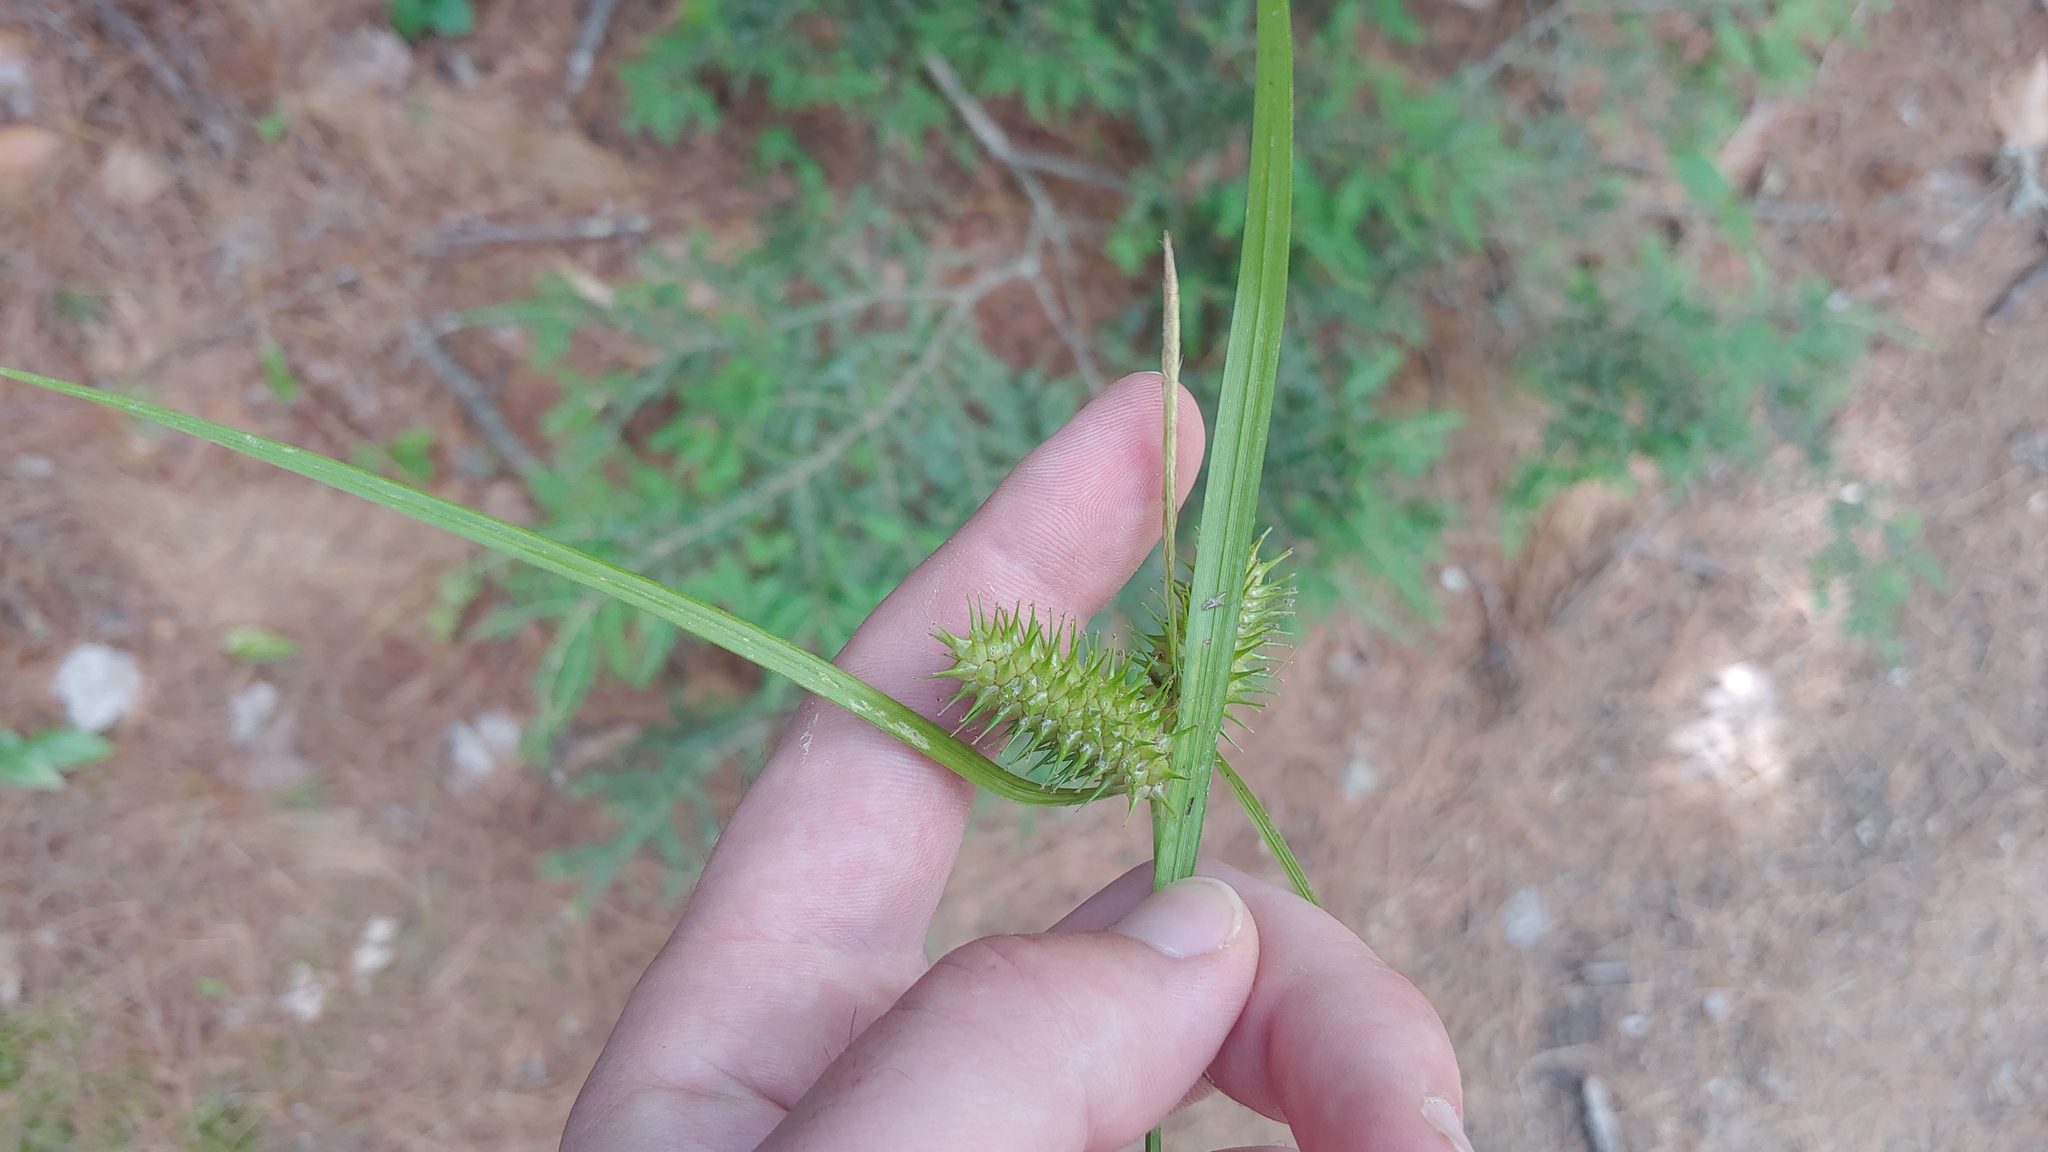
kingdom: Plantae
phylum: Tracheophyta
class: Liliopsida
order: Poales
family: Cyperaceae
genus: Carex
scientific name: Carex lurida
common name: Sallow sedge
